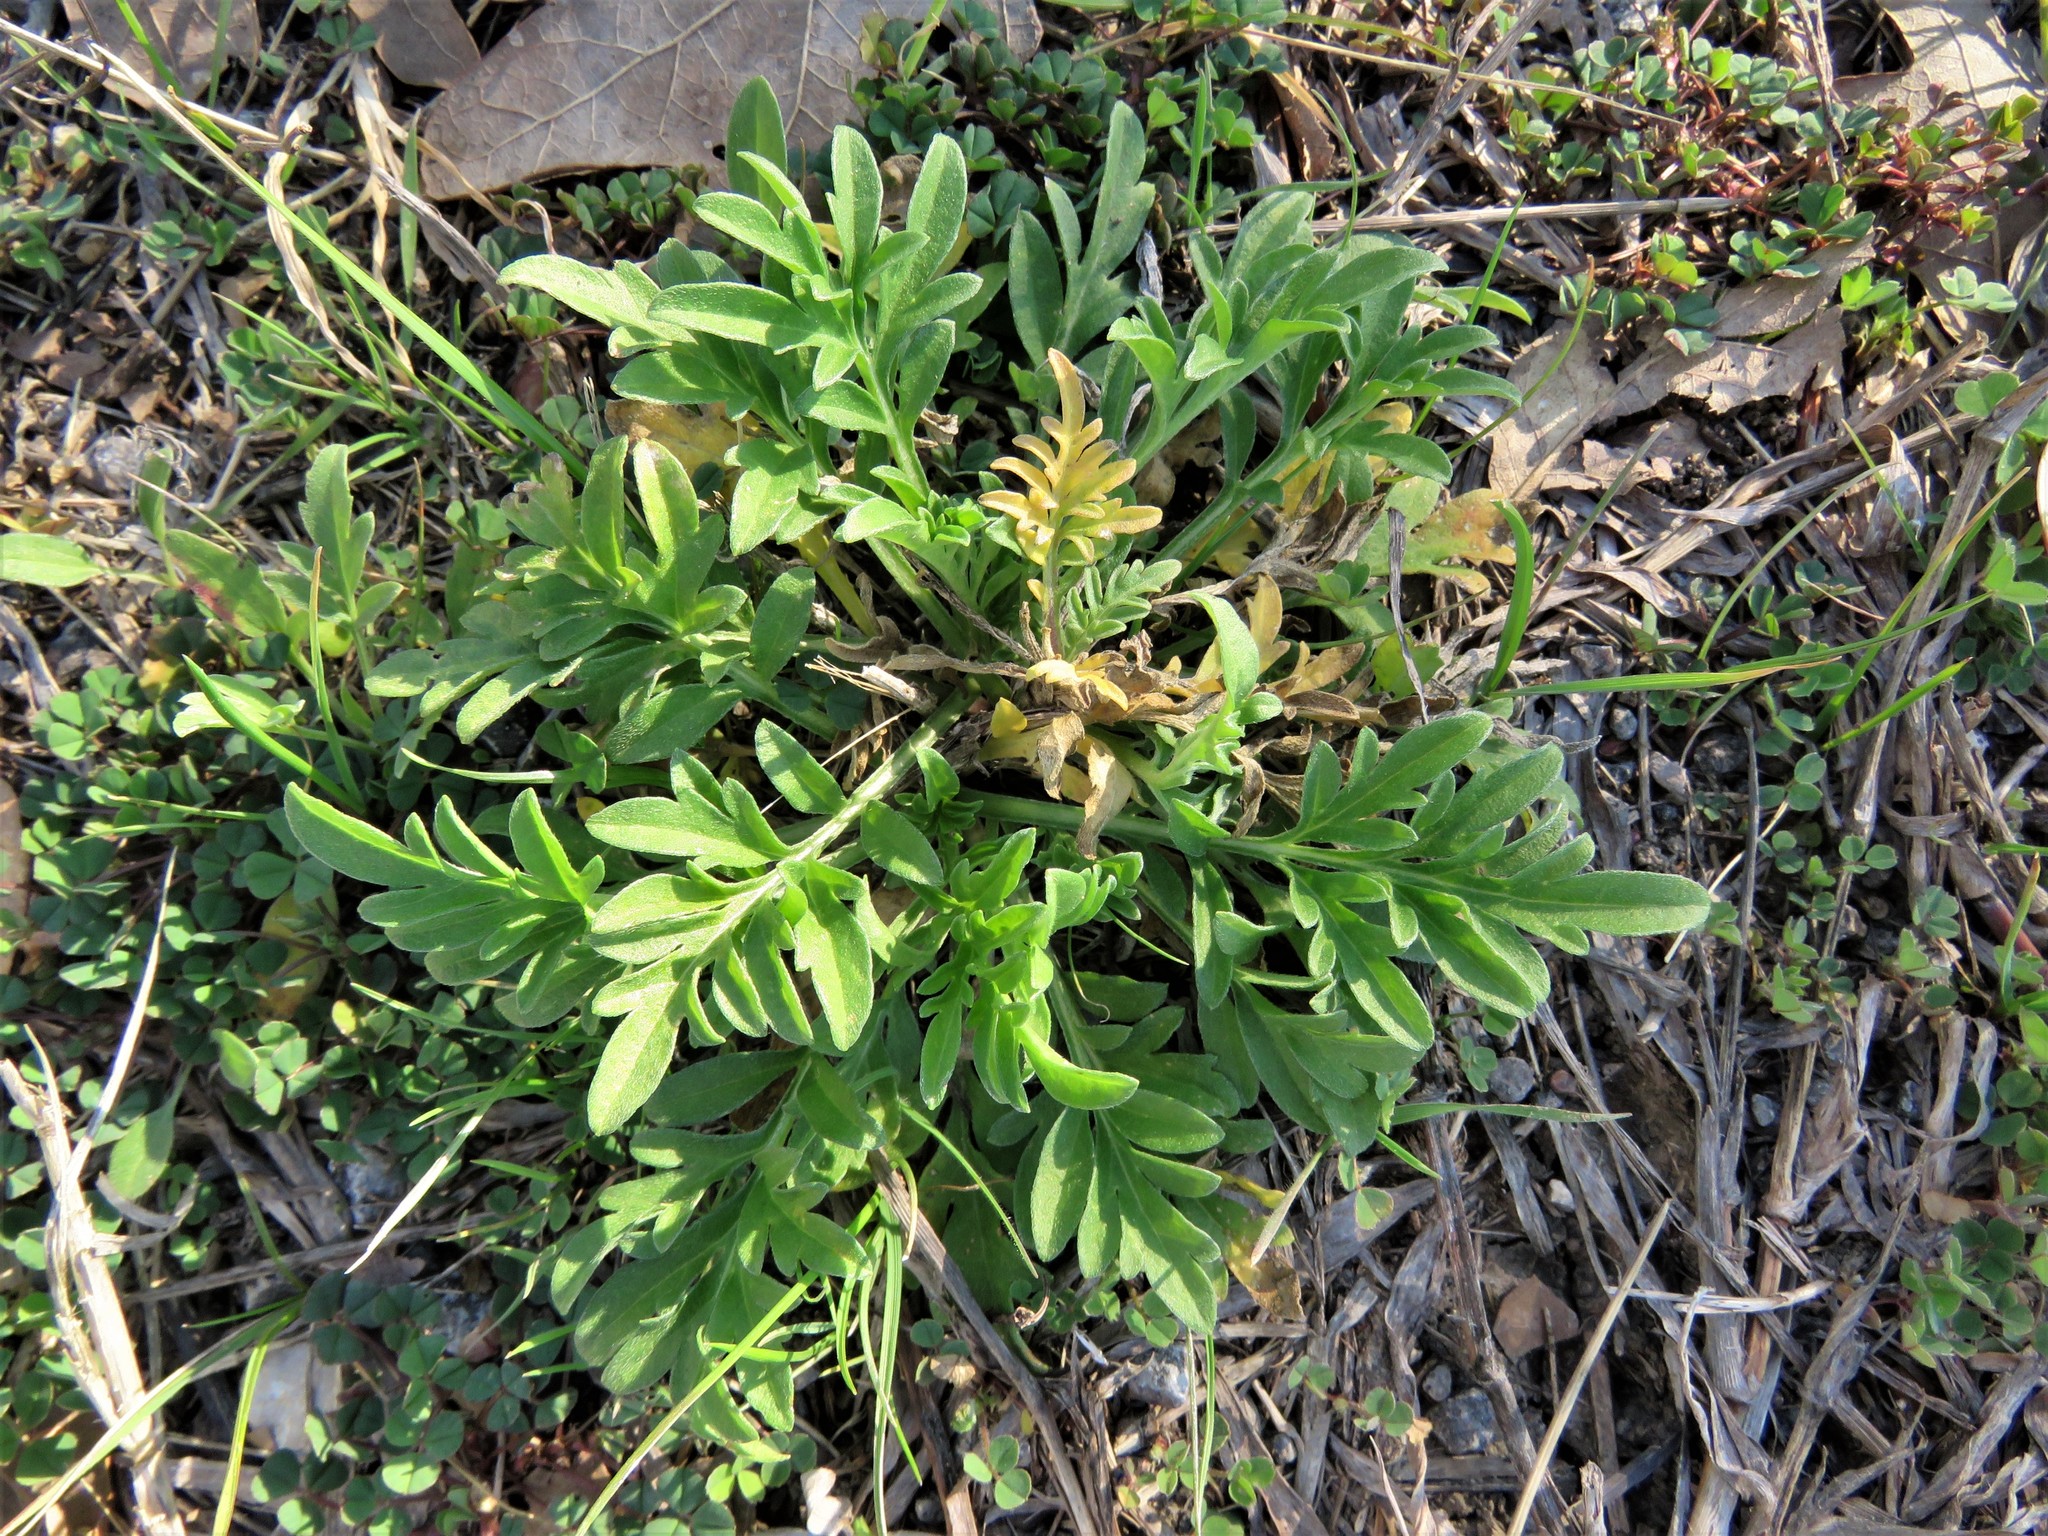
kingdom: Plantae
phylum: Tracheophyta
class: Magnoliopsida
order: Asterales
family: Asteraceae
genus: Ratibida
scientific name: Ratibida columnifera
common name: Prairie coneflower
